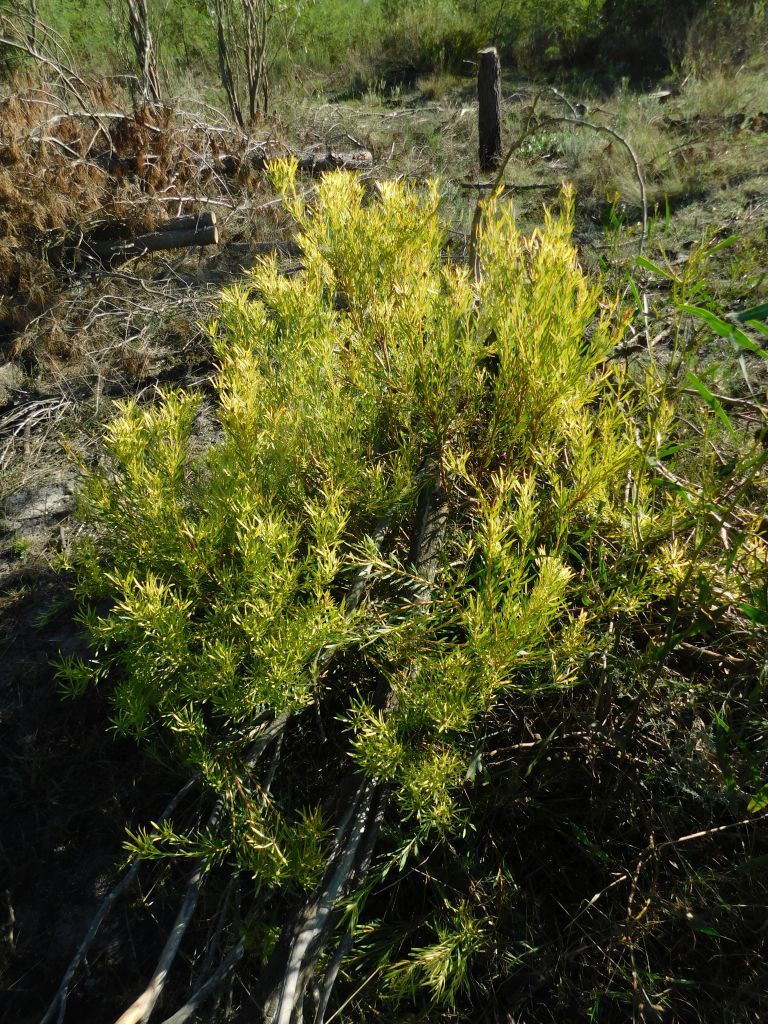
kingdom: Plantae
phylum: Tracheophyta
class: Magnoliopsida
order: Proteales
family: Proteaceae
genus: Leucadendron
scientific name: Leucadendron salignum
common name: Common sunshine conebush
